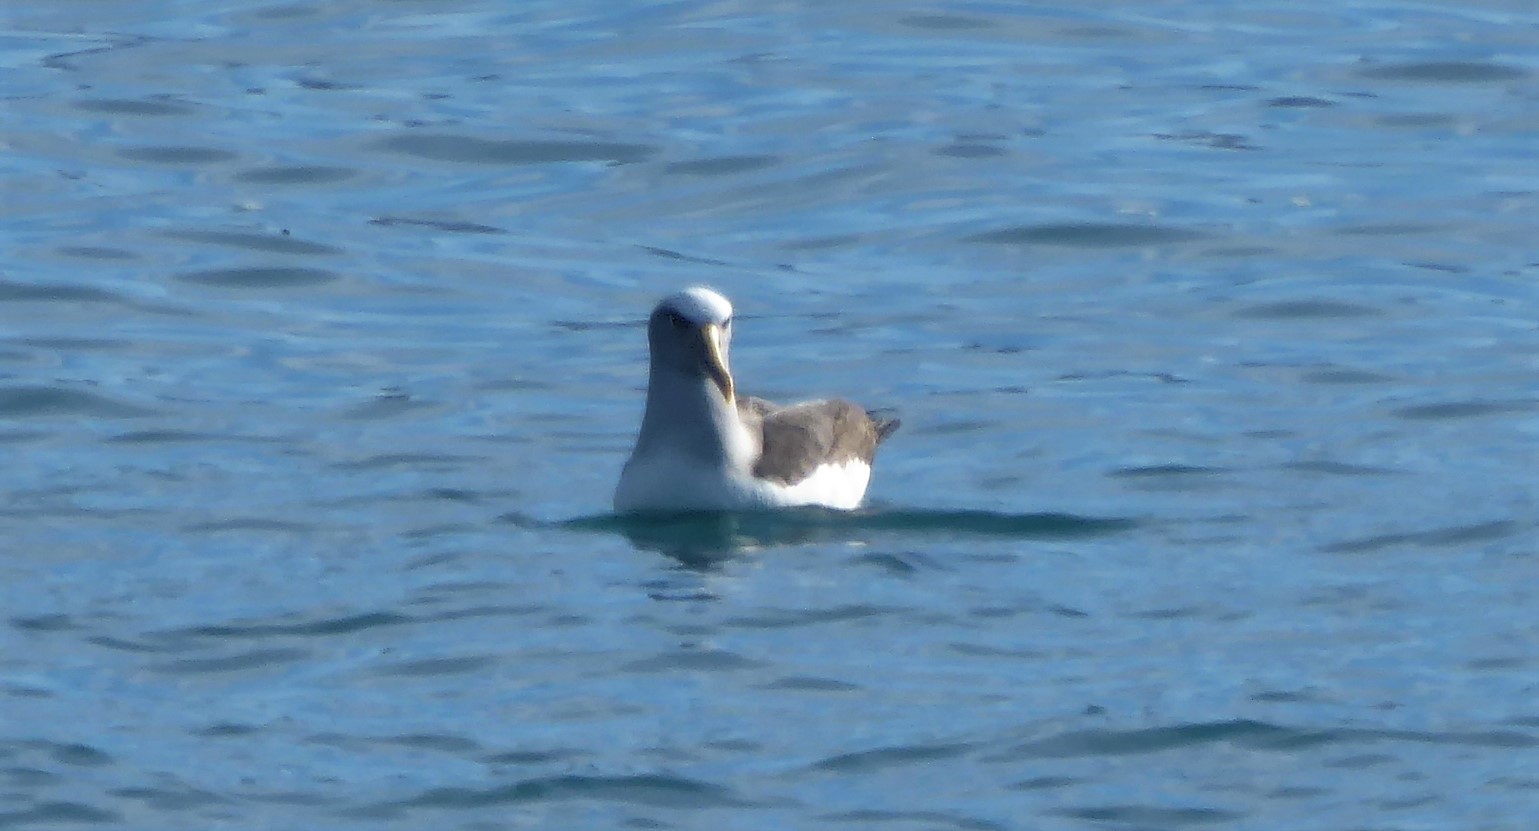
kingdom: Animalia
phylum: Chordata
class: Aves
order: Procellariiformes
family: Diomedeidae
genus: Thalassarche
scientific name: Thalassarche bulleri
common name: Buller's albatross
